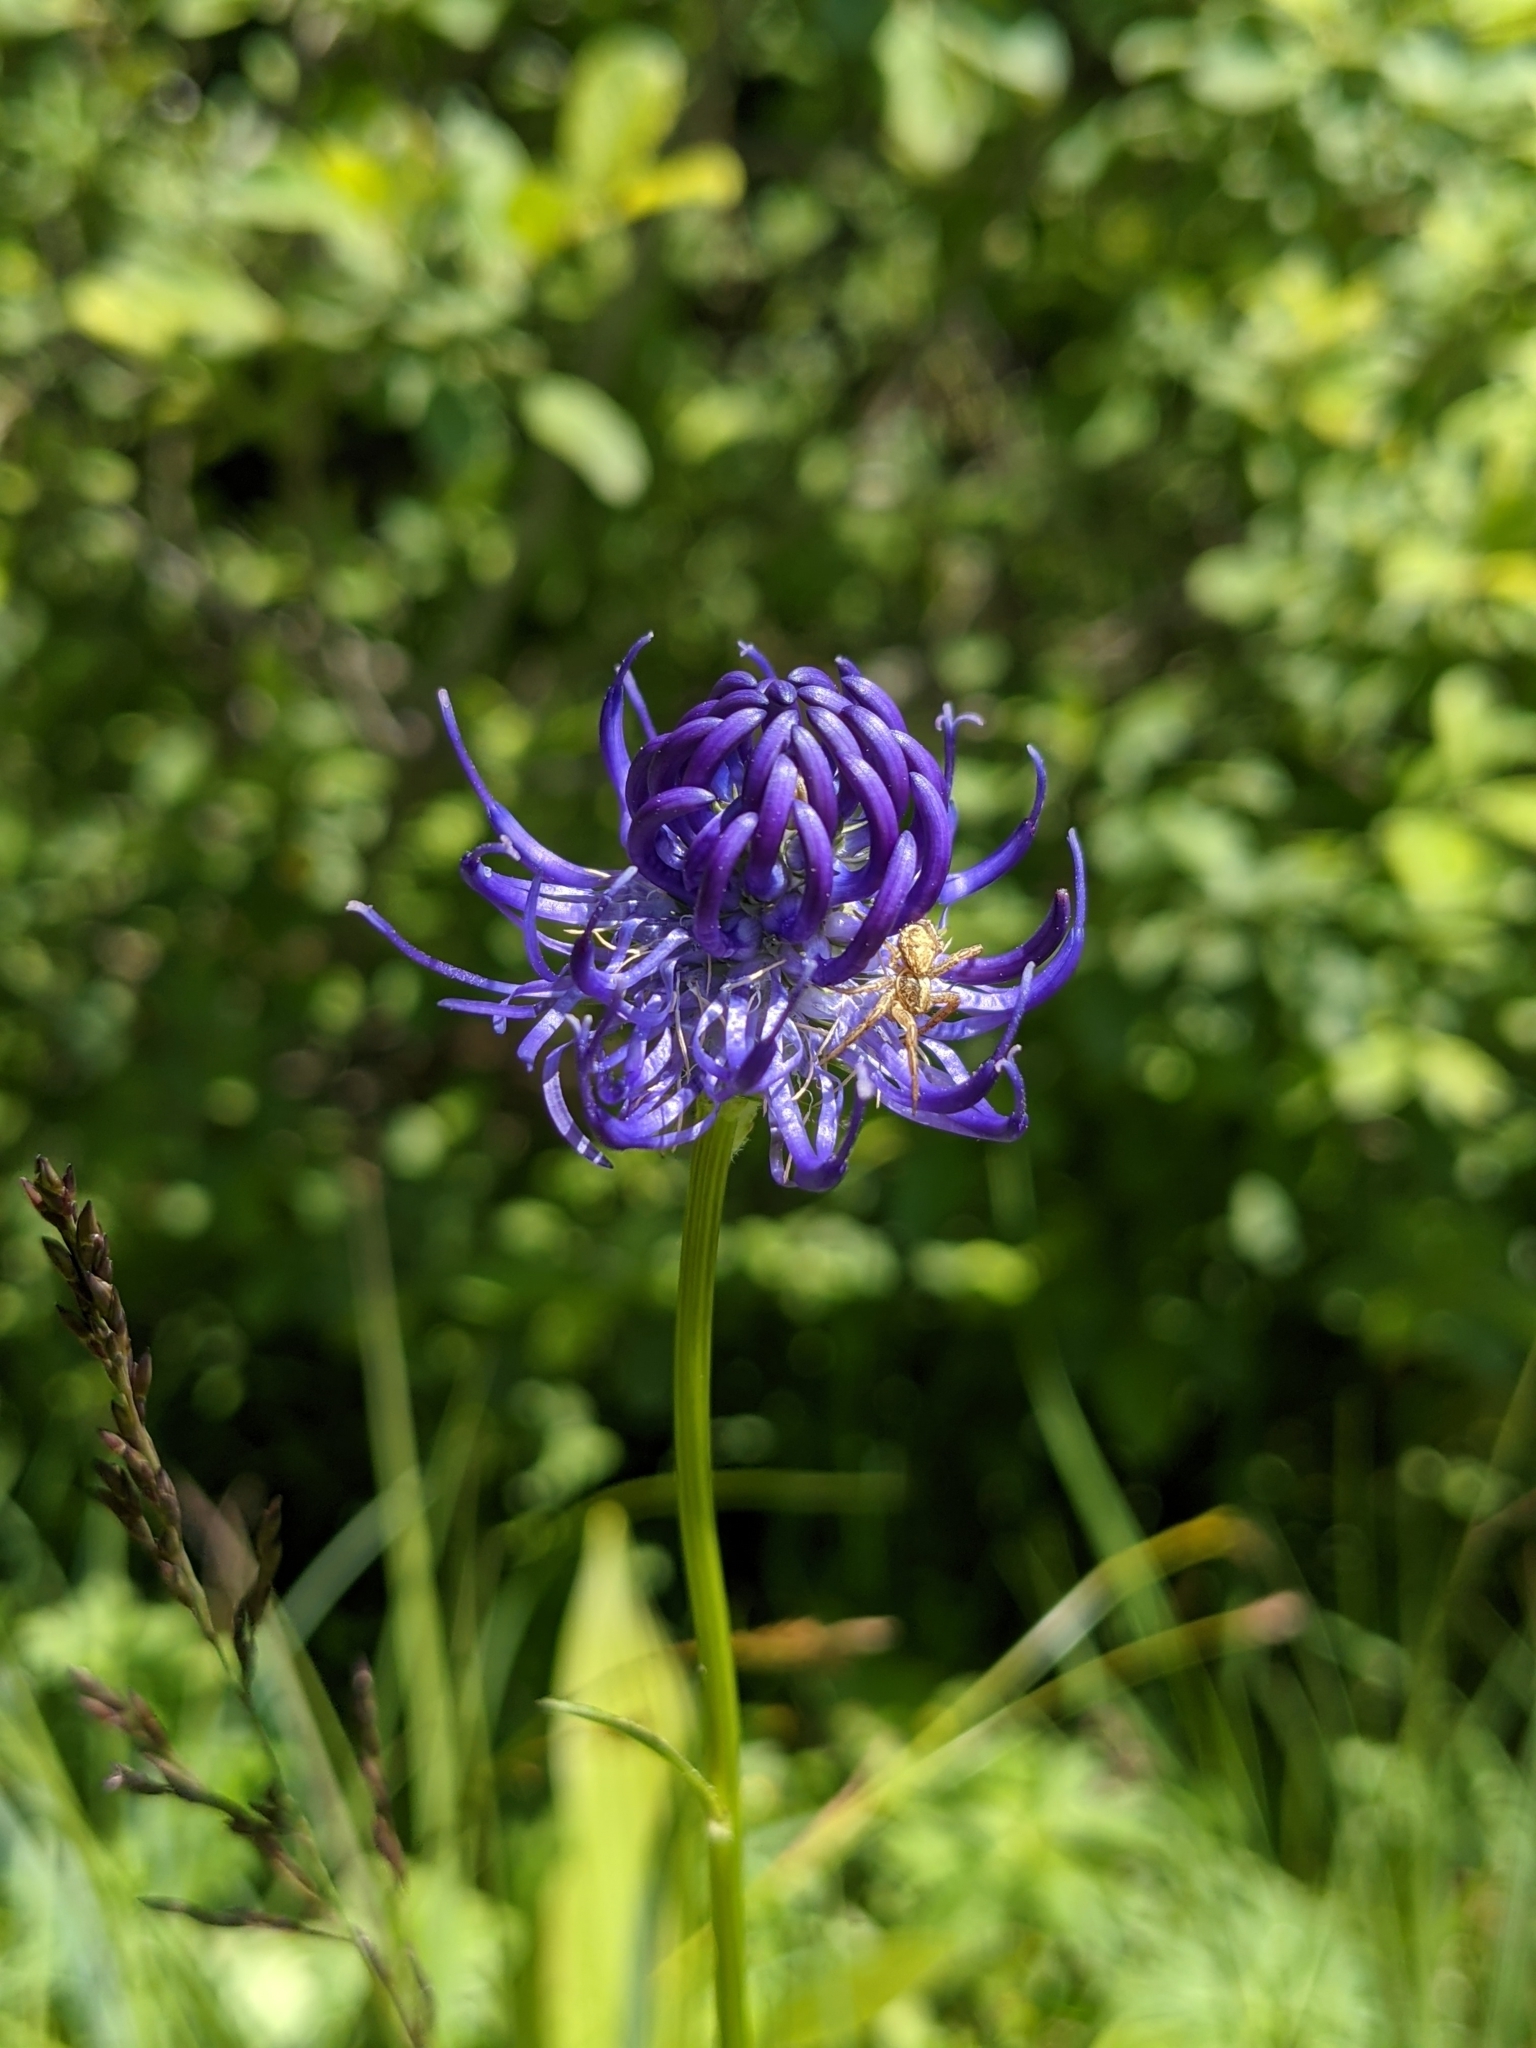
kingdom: Plantae
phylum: Tracheophyta
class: Magnoliopsida
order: Asterales
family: Campanulaceae
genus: Phyteuma
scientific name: Phyteuma orbiculare
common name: Round-headed rampion
